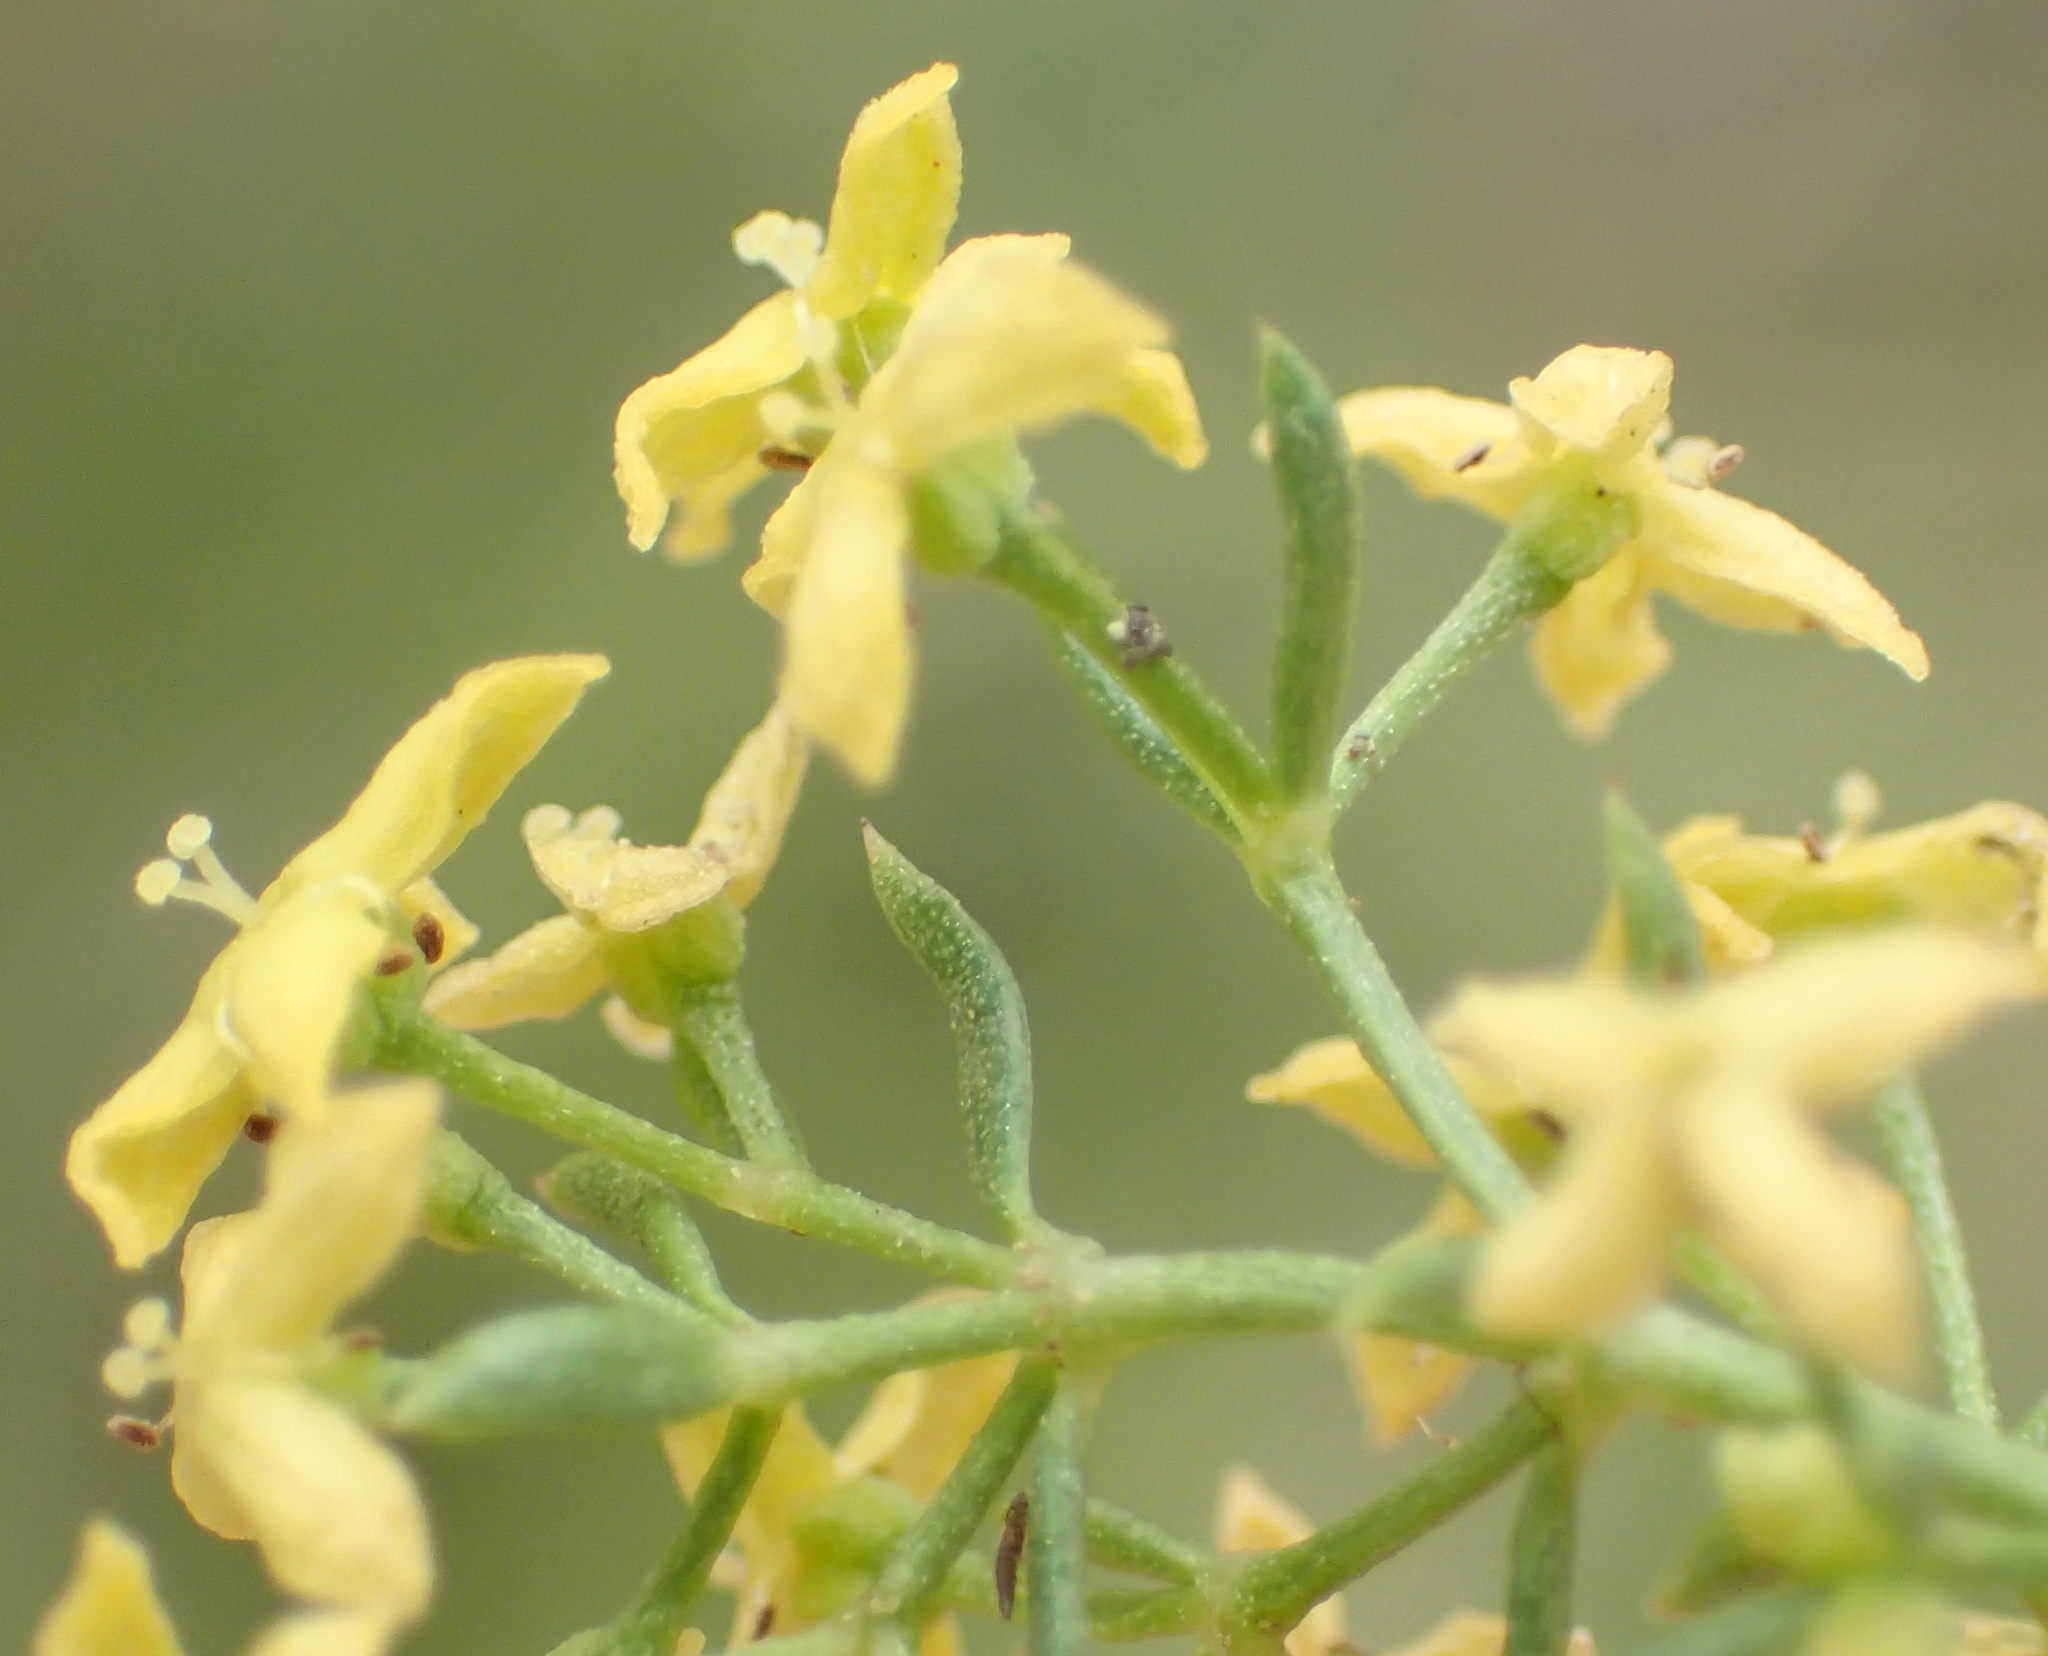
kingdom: Plantae
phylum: Tracheophyta
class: Magnoliopsida
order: Gentianales
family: Rubiaceae
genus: Galium
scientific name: Galium capense
